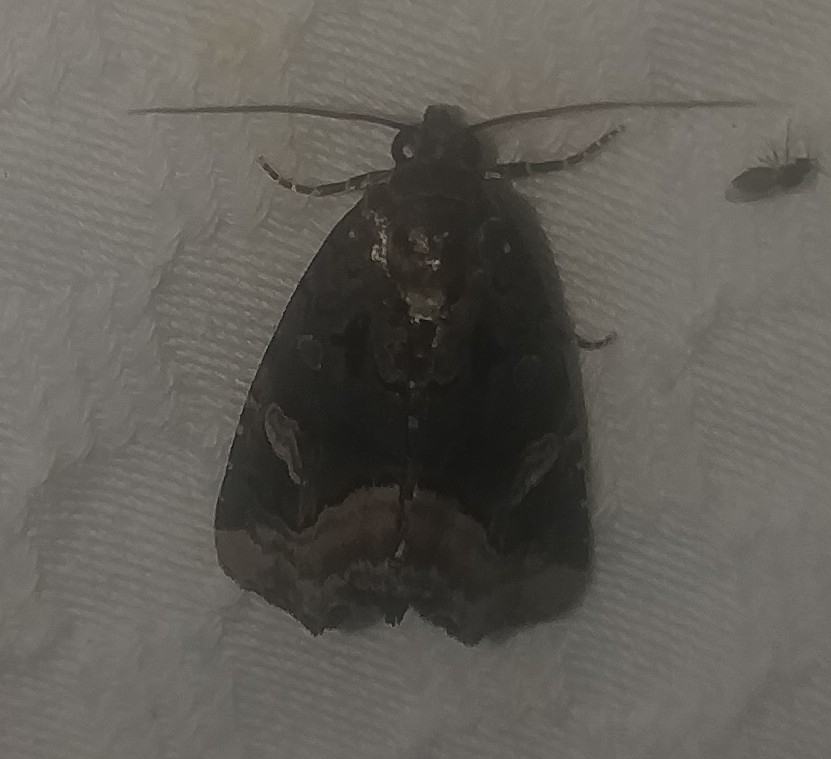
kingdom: Animalia
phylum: Arthropoda
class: Insecta
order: Lepidoptera
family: Noctuidae
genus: Homophoberia
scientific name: Homophoberia apicosa
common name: Black wedge-spot
